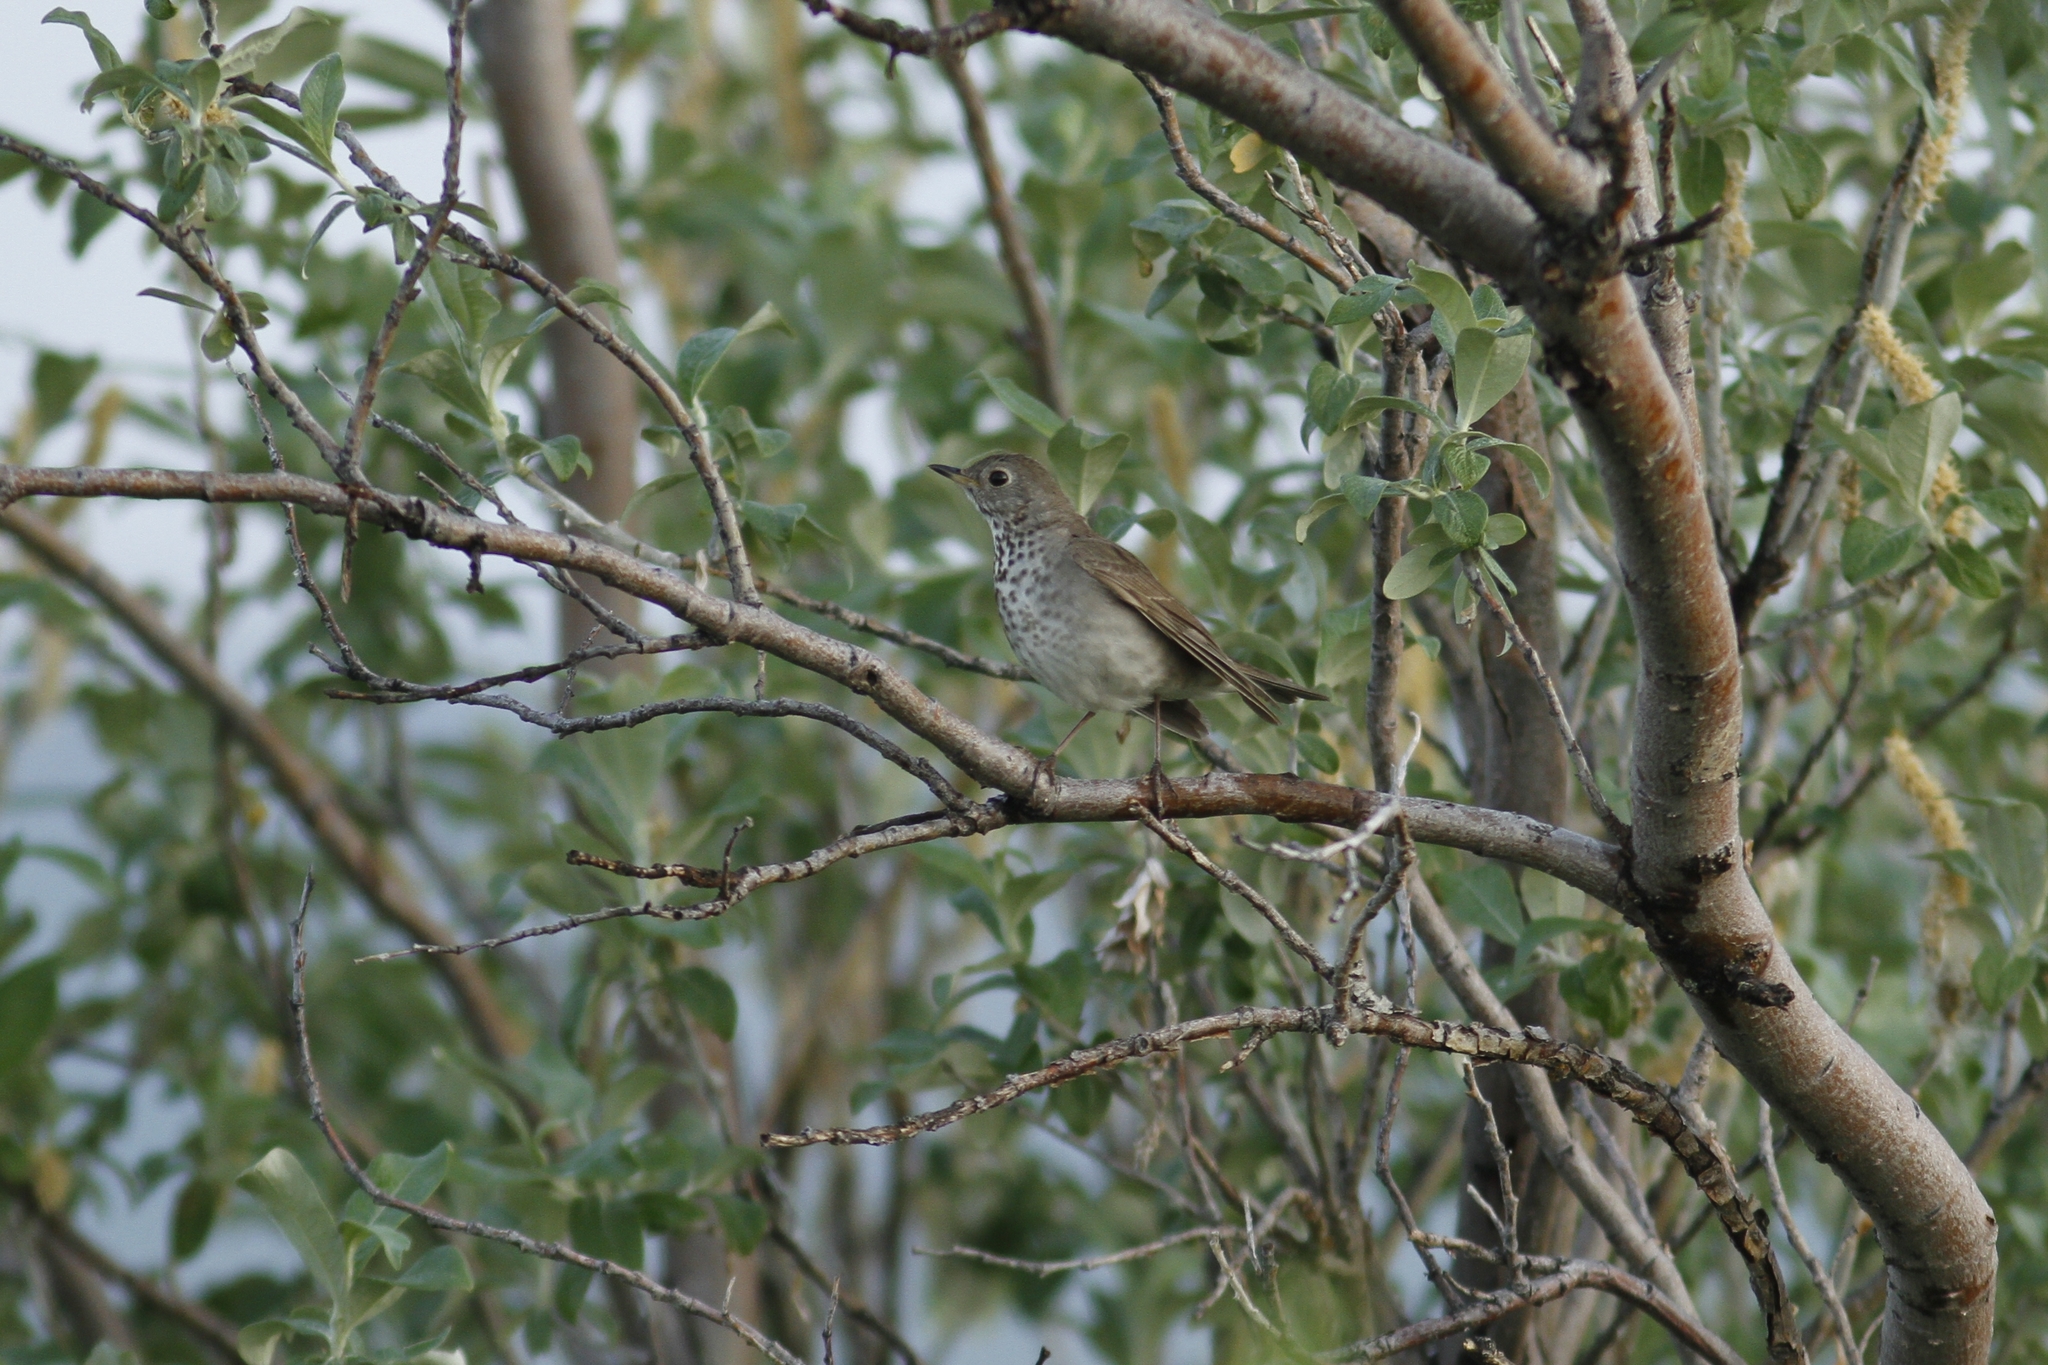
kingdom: Animalia
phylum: Chordata
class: Aves
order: Passeriformes
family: Turdidae
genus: Catharus
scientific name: Catharus minimus
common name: Grey-cheeked thrush
